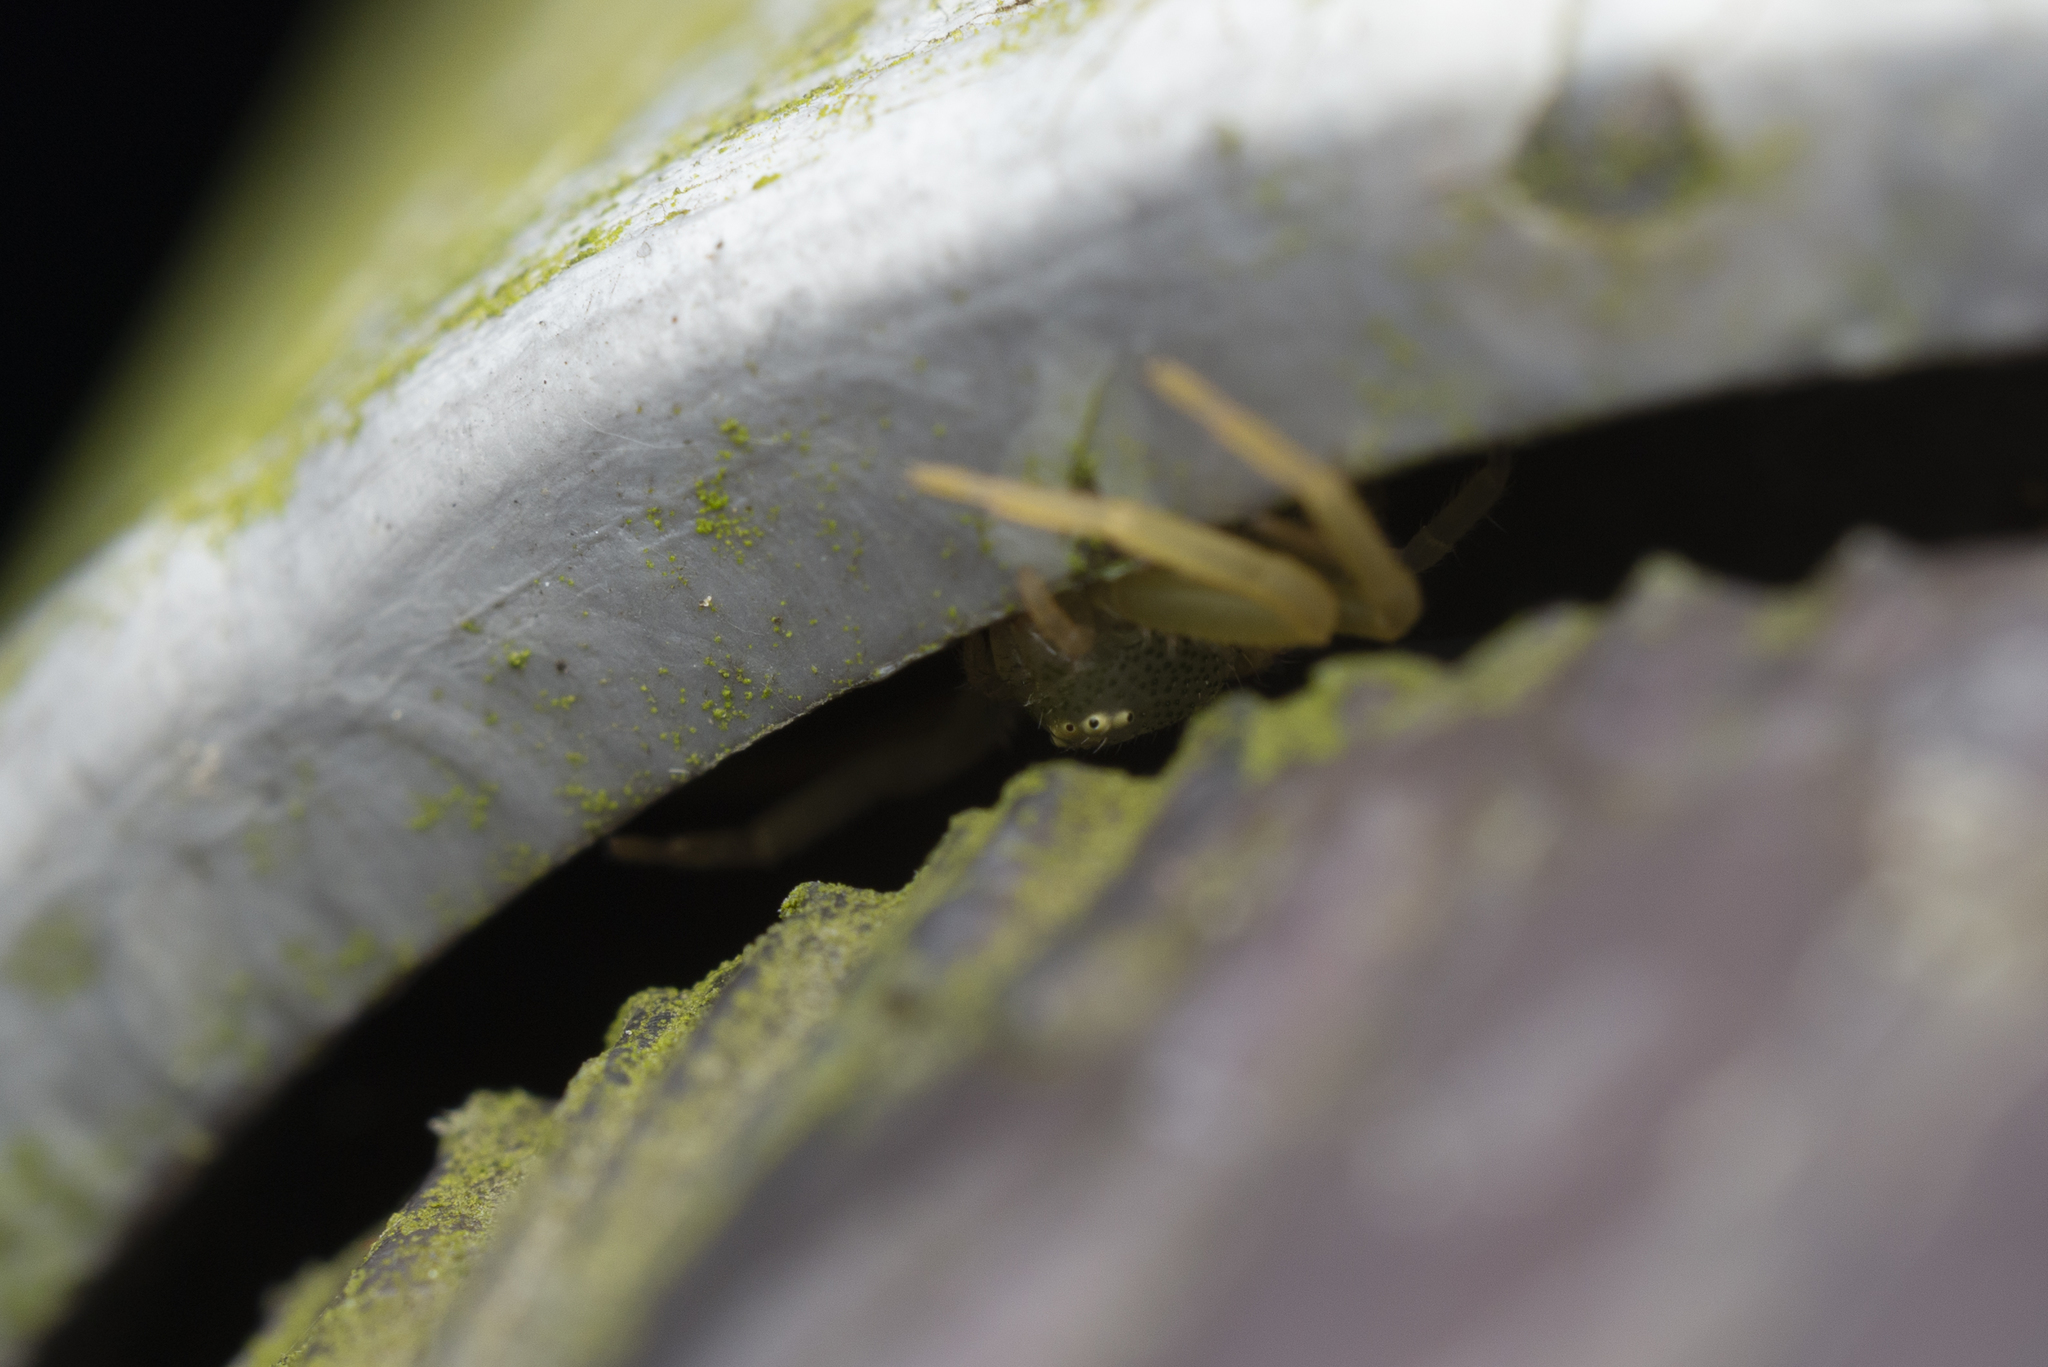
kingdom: Animalia
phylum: Arthropoda
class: Arachnida
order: Araneae
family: Thomisidae
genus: Diaea
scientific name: Diaea simplex
